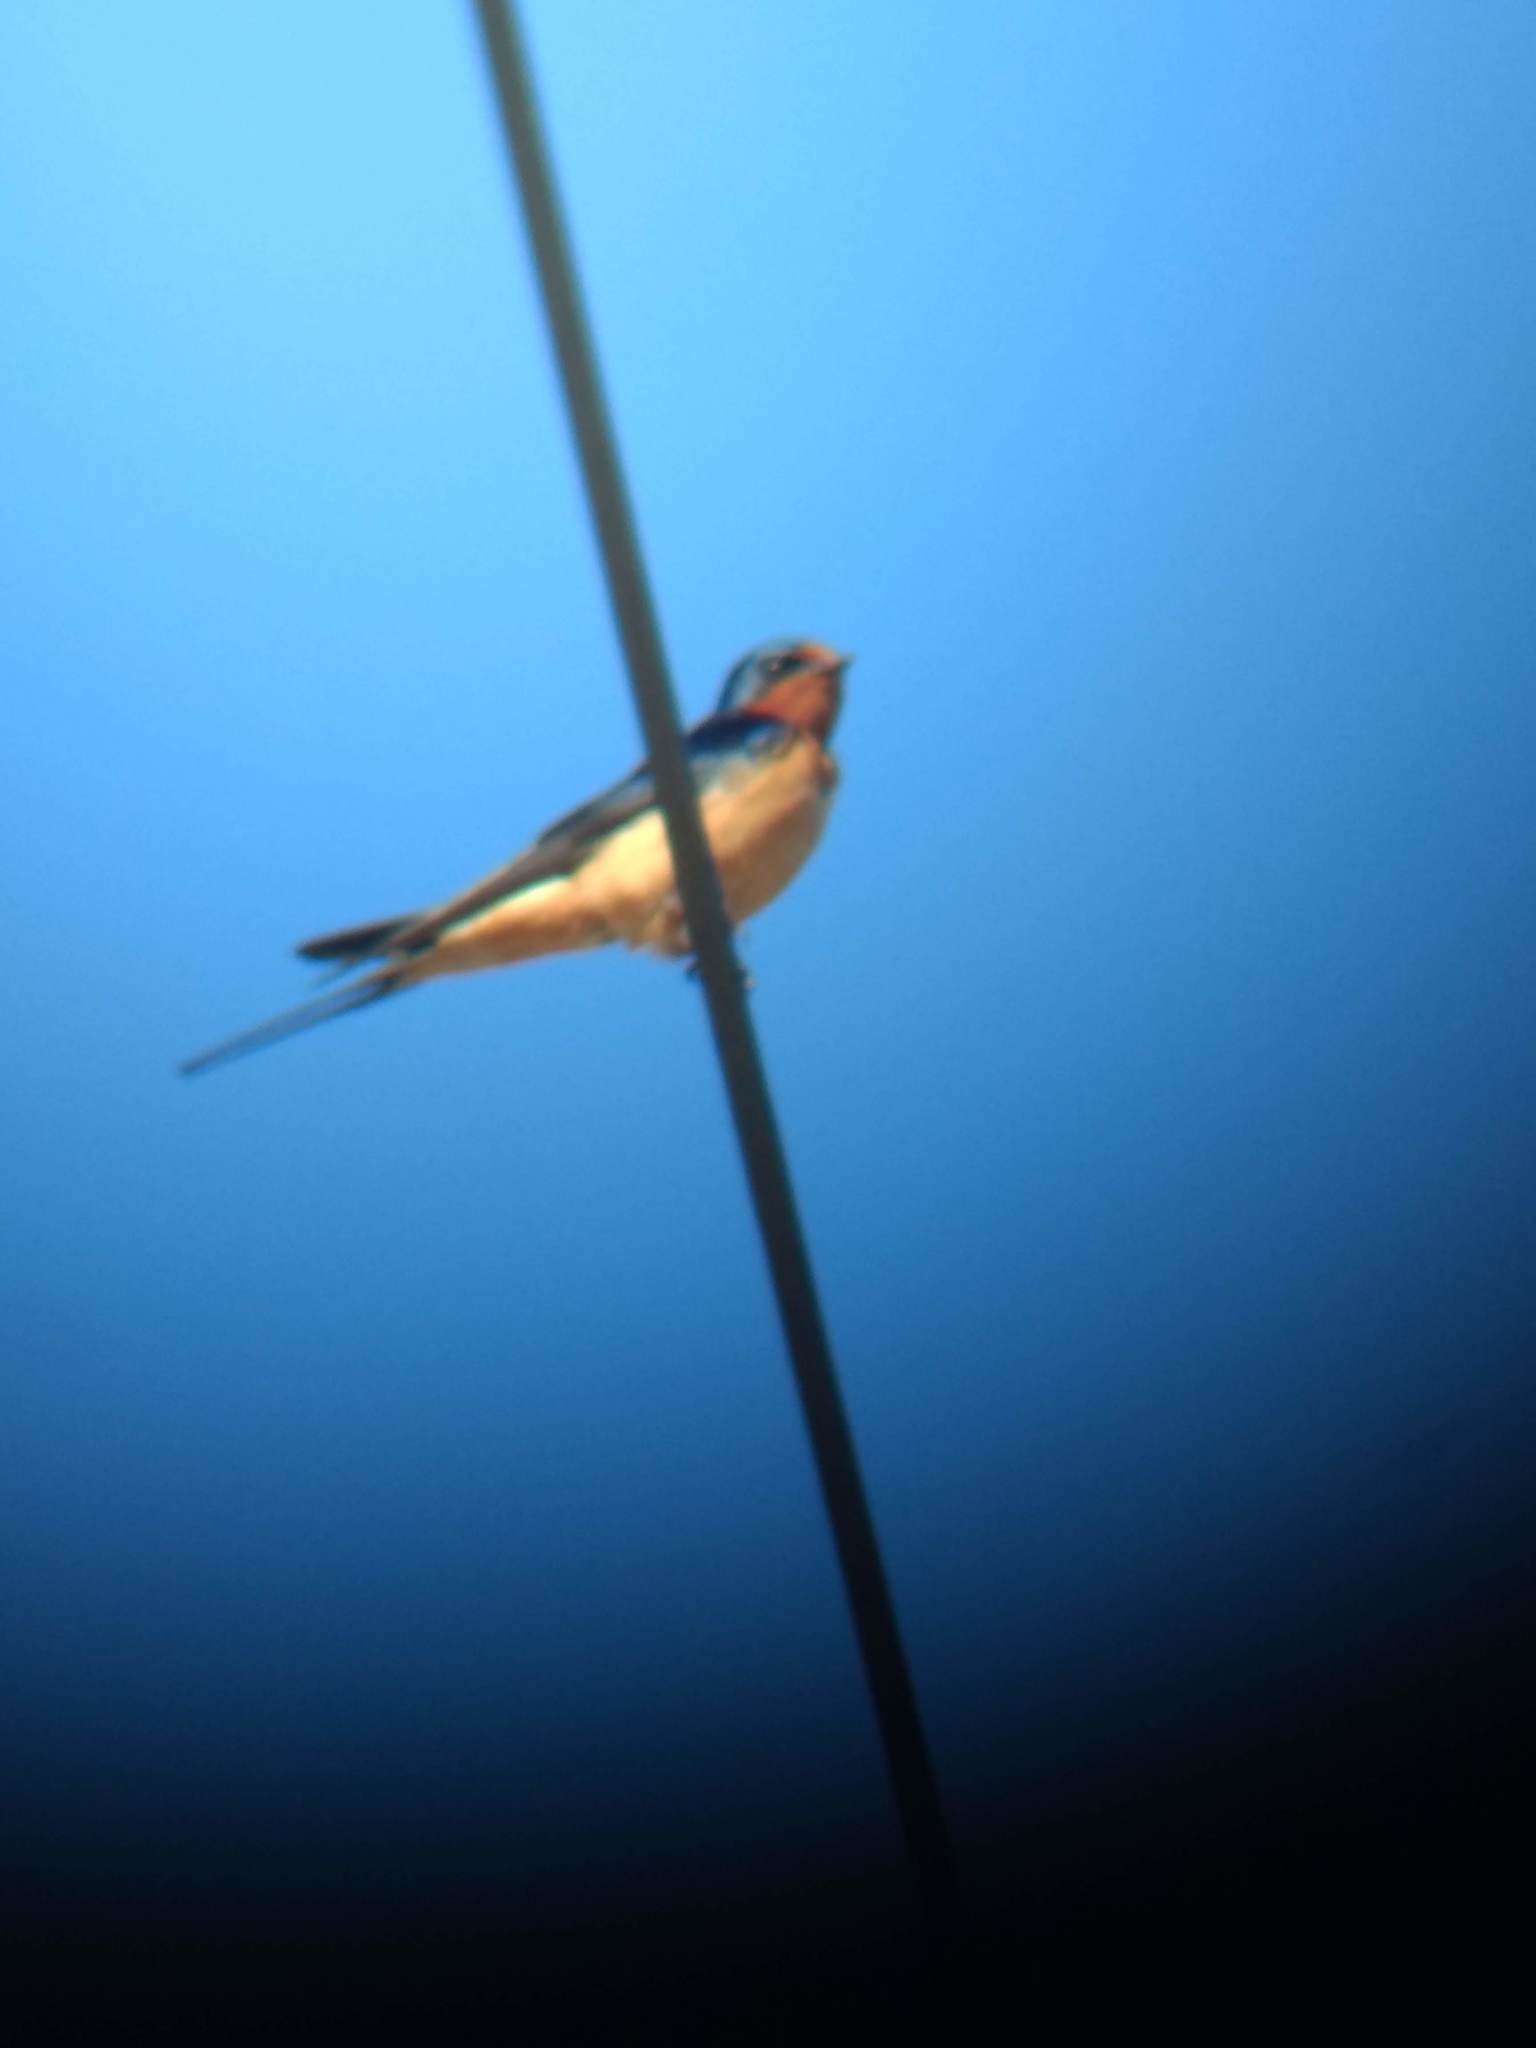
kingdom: Animalia
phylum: Chordata
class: Aves
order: Passeriformes
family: Hirundinidae
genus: Hirundo
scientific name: Hirundo rustica
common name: Barn swallow
